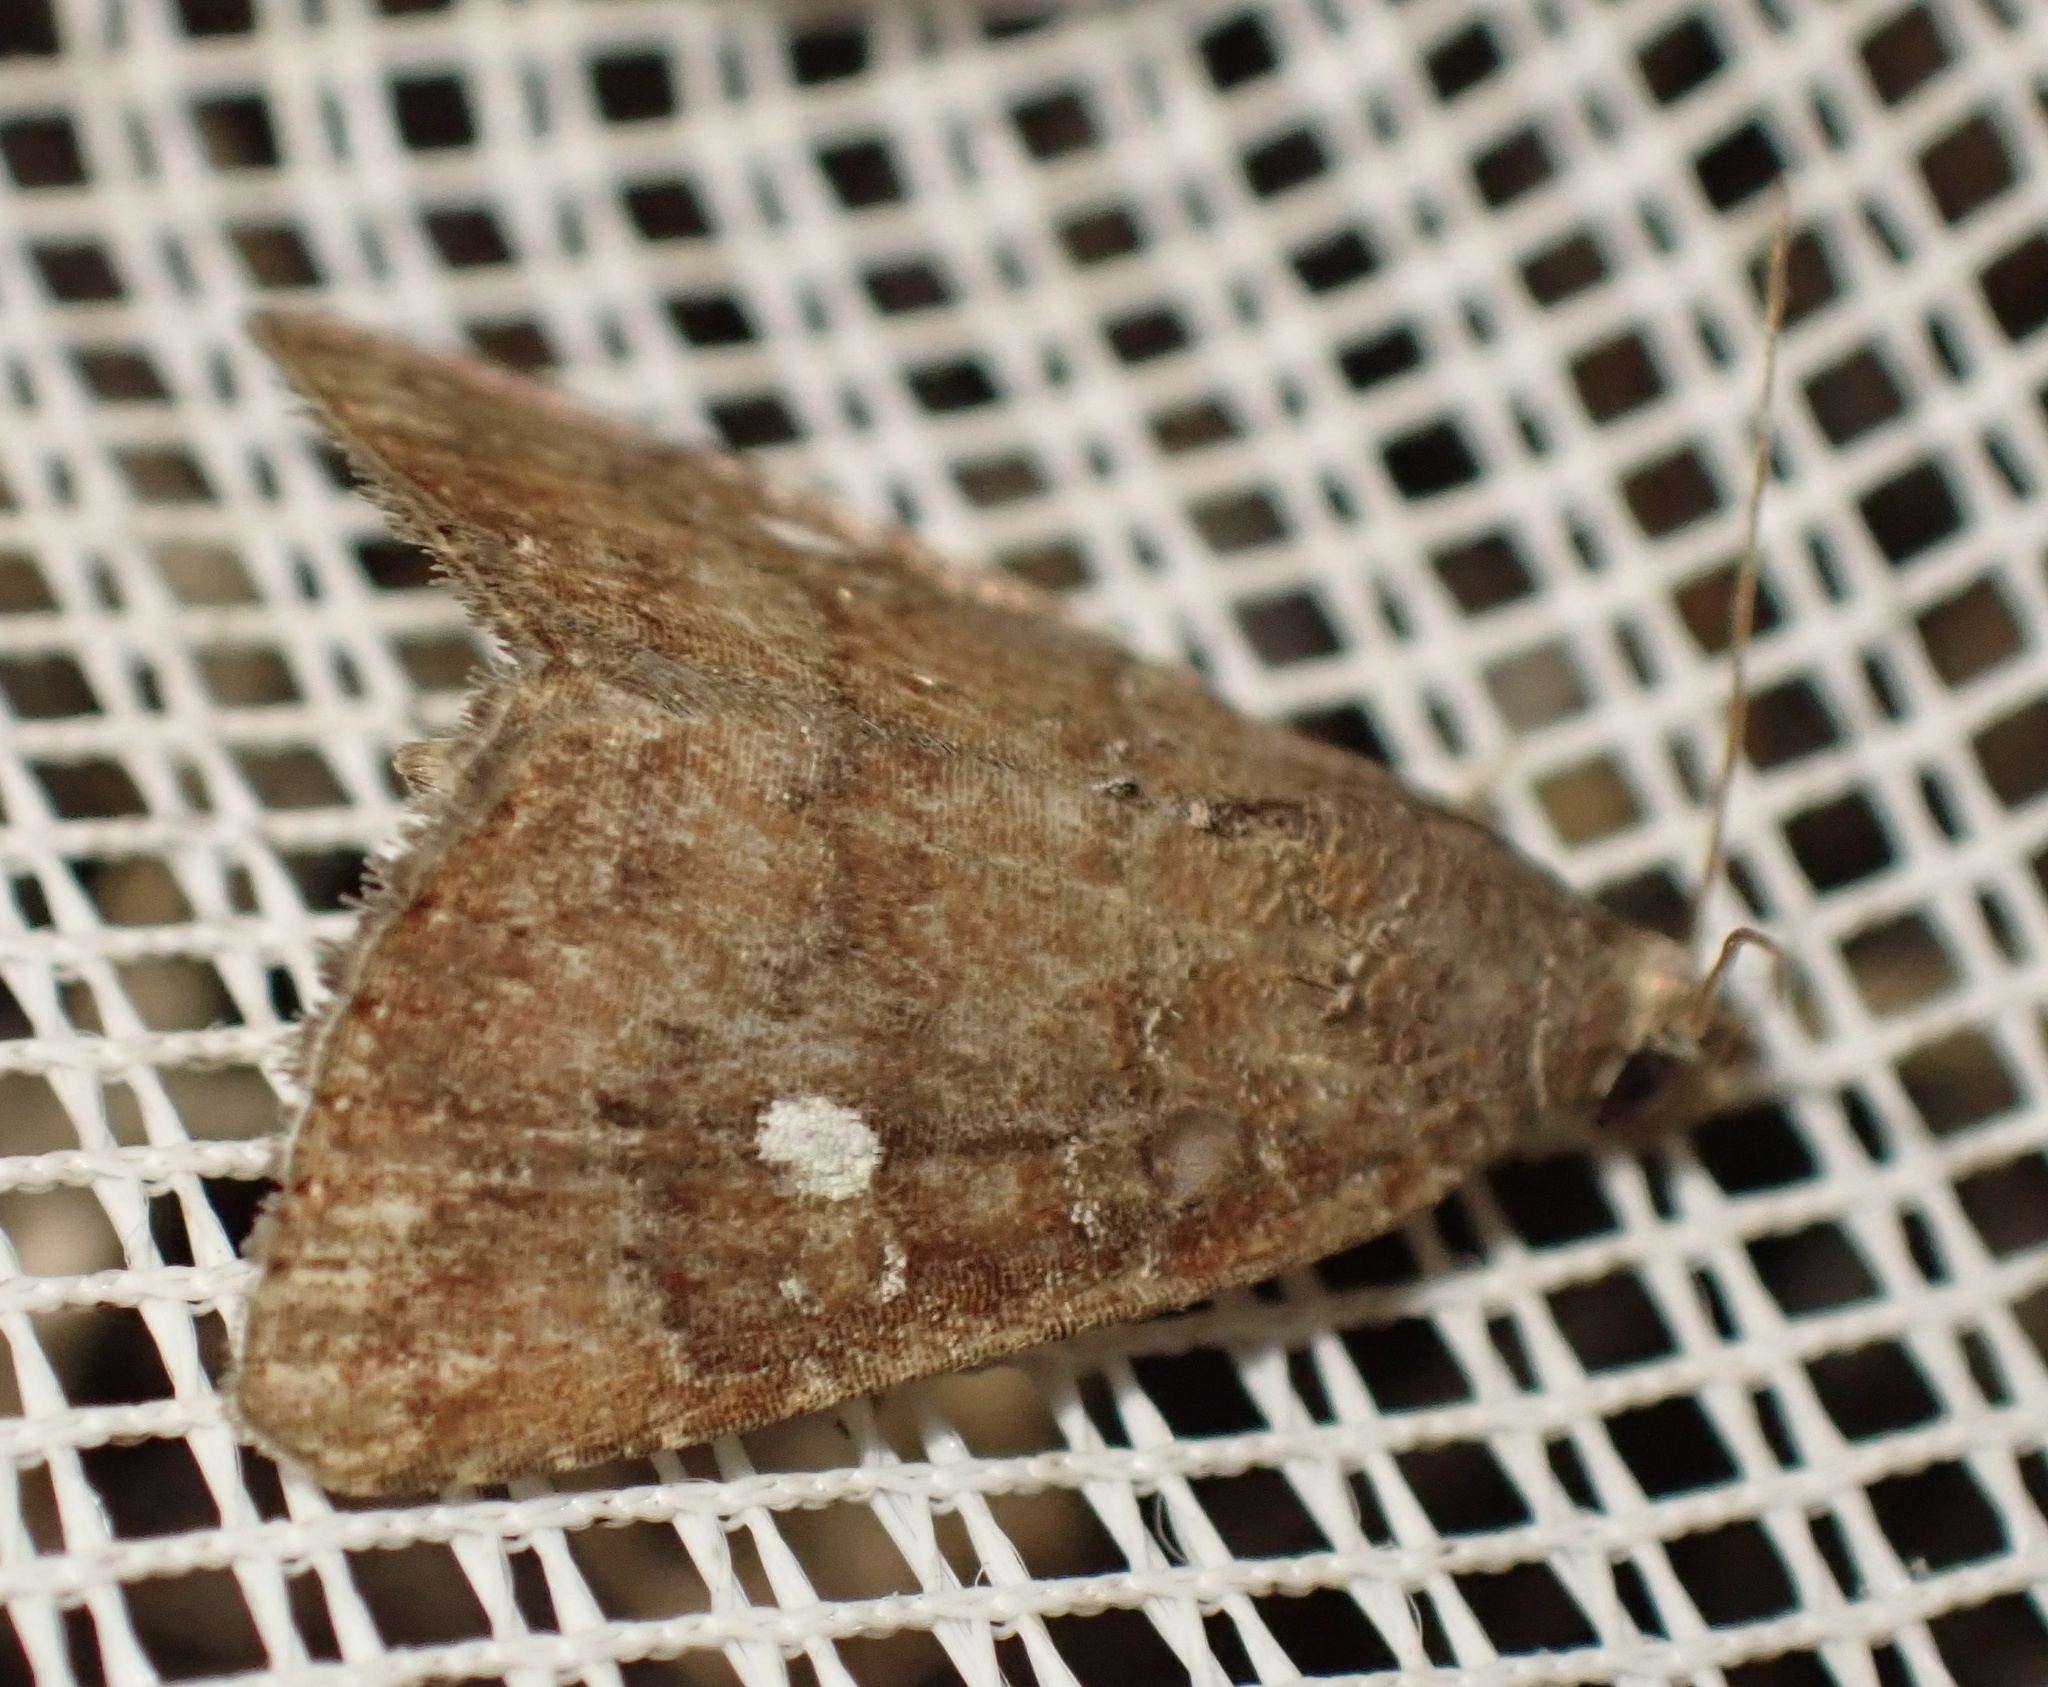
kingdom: Animalia
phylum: Arthropoda
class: Insecta
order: Lepidoptera
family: Noctuidae
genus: Amyna
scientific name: Amyna axis
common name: Cutworm
